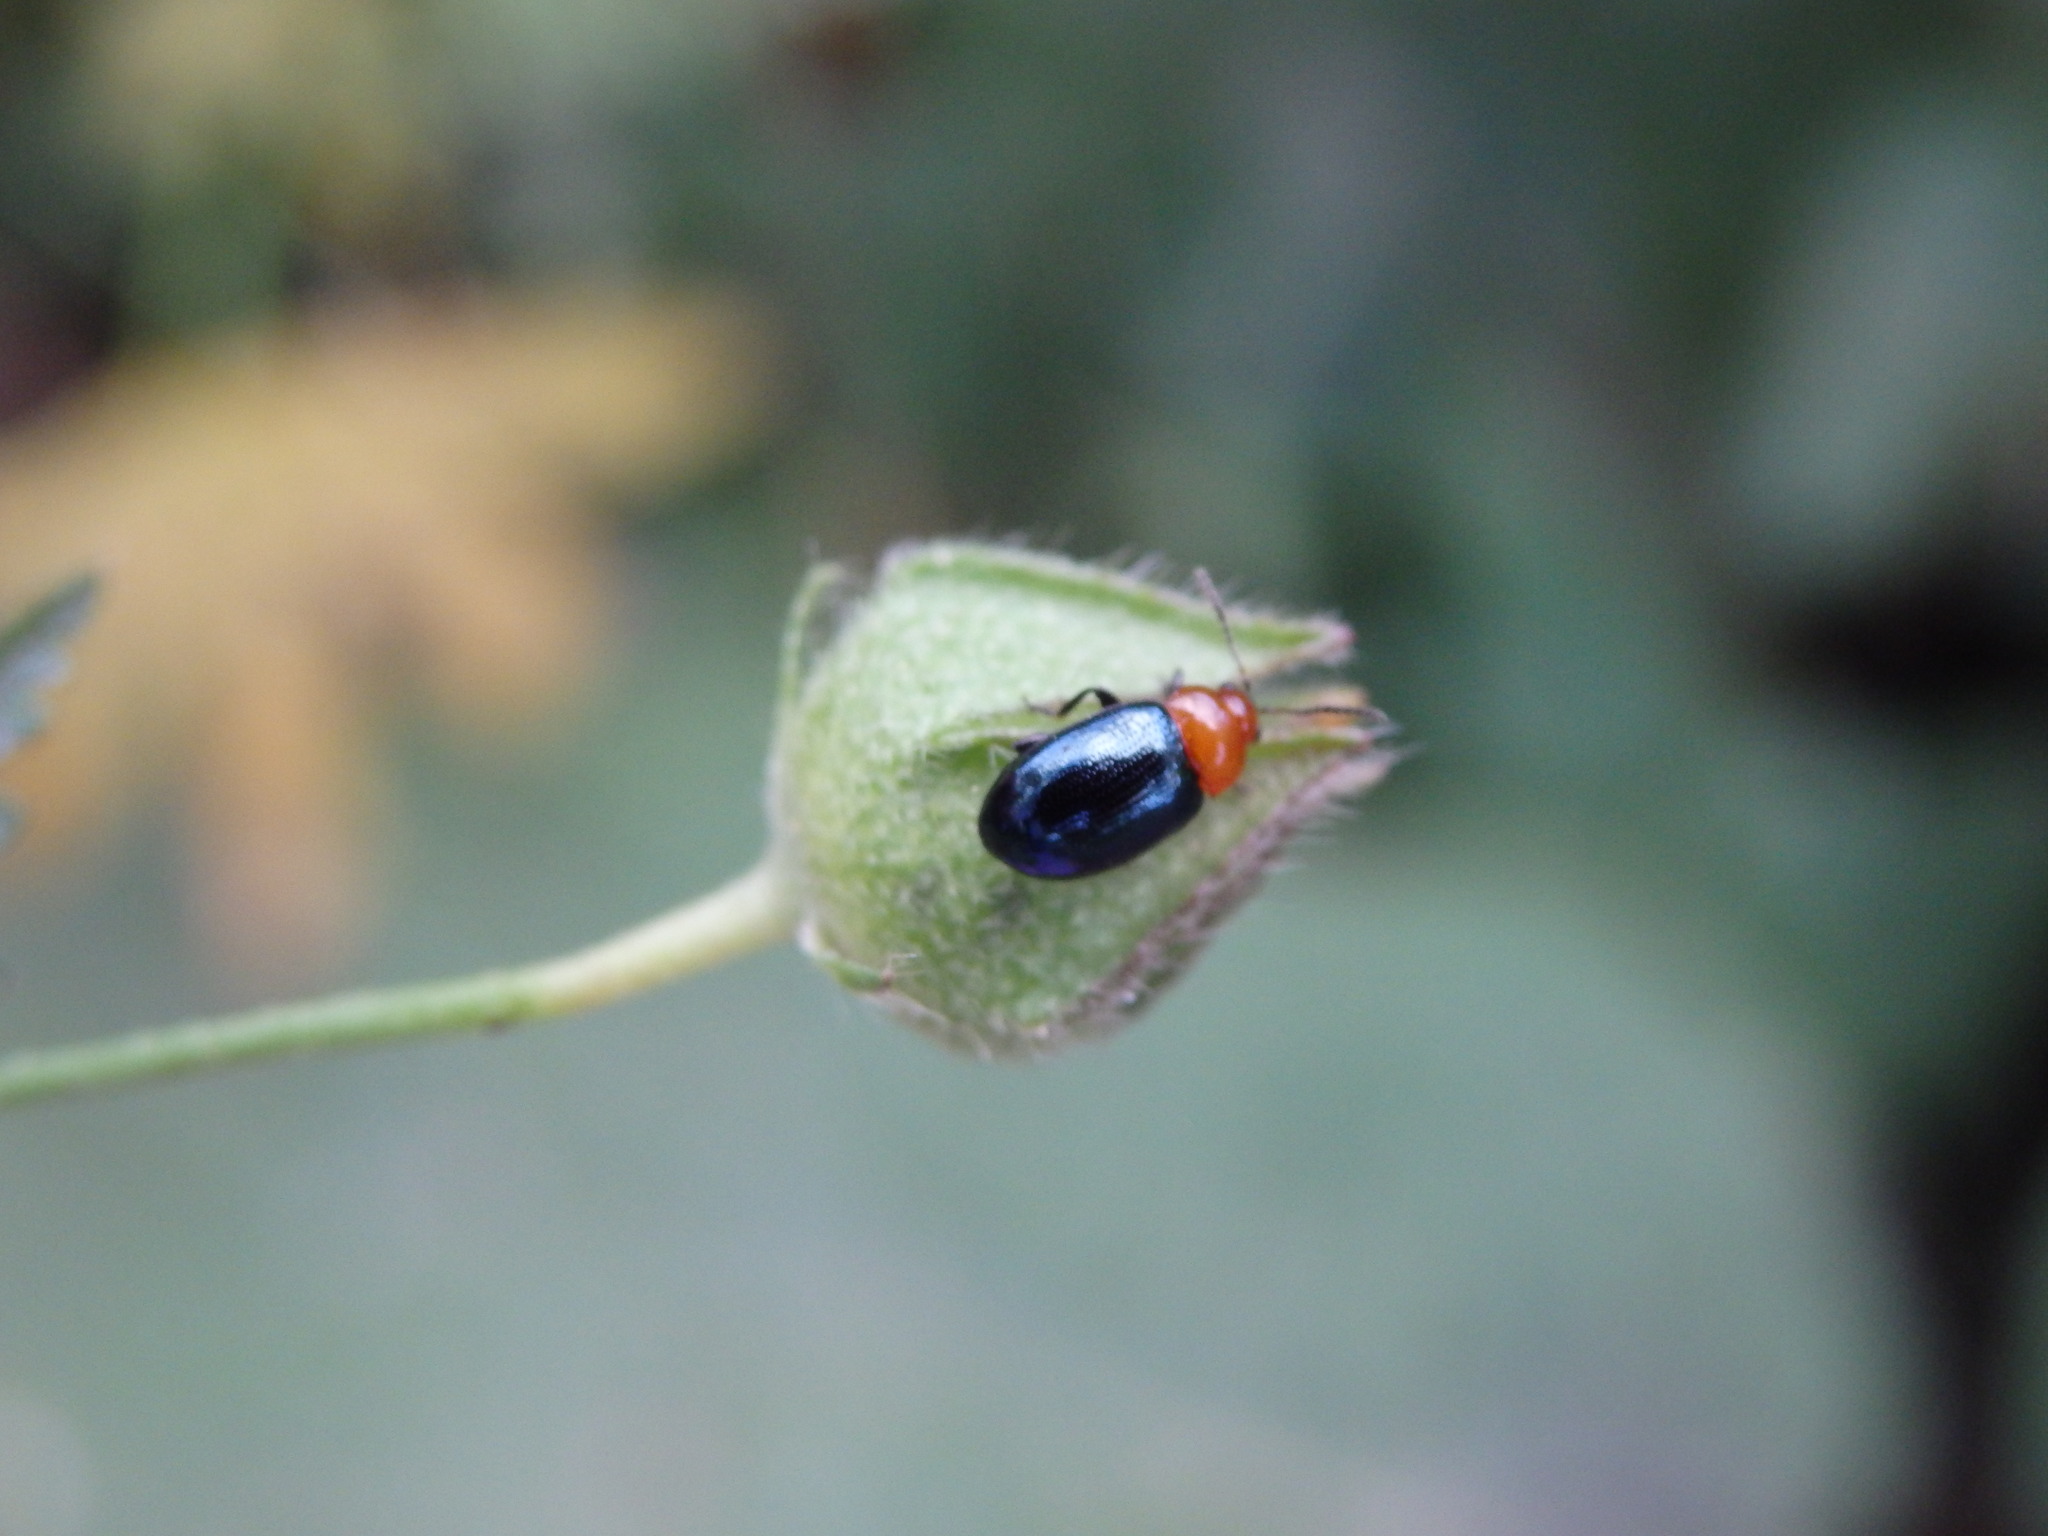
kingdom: Animalia
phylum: Arthropoda
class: Insecta
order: Coleoptera
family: Chrysomelidae
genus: Podagrica
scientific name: Podagrica fuscipes
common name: Mallow flea beetle
